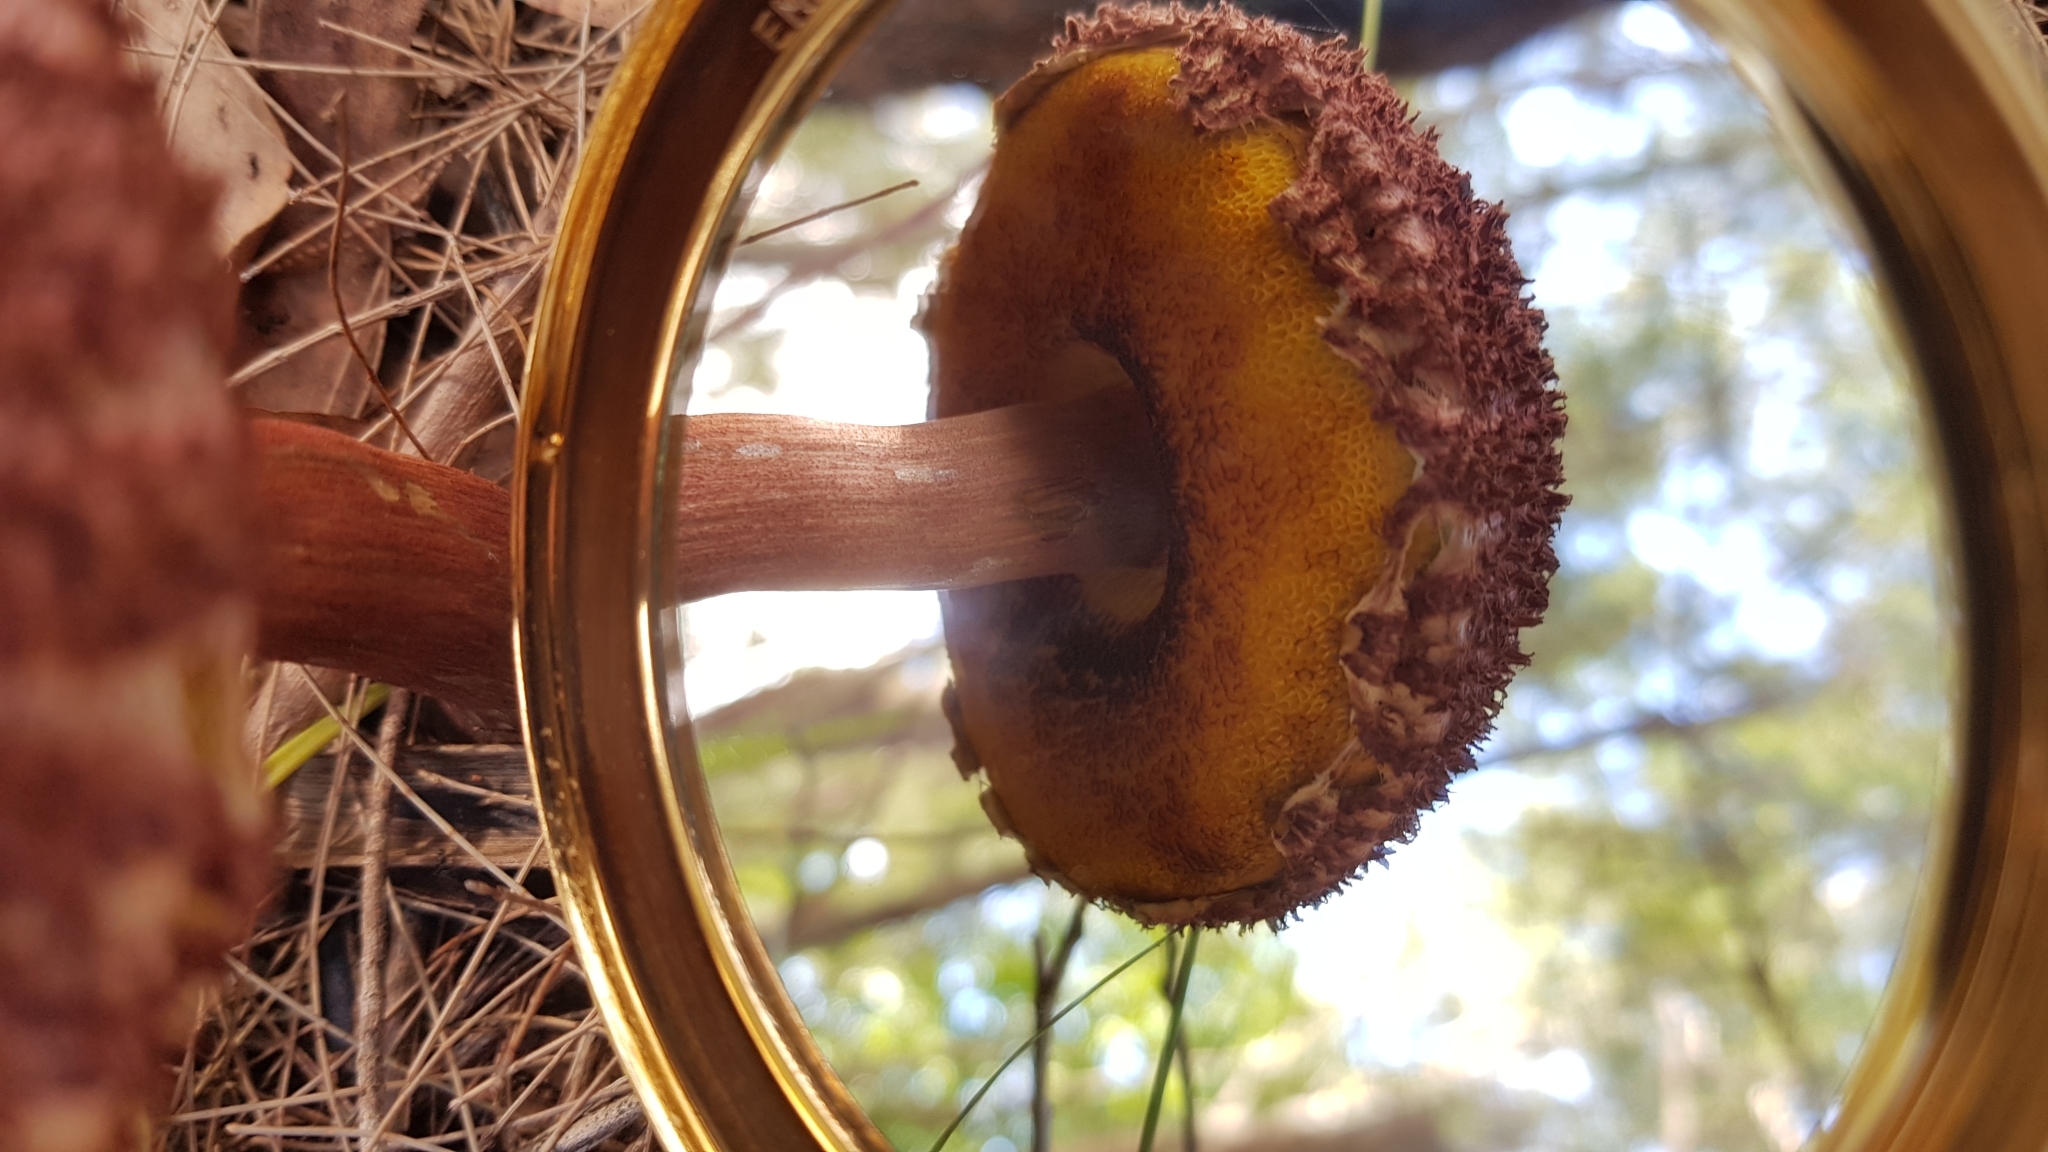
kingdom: Fungi
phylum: Basidiomycota
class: Agaricomycetes
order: Boletales
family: Boletaceae
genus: Boletellus
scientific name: Boletellus emodensis
